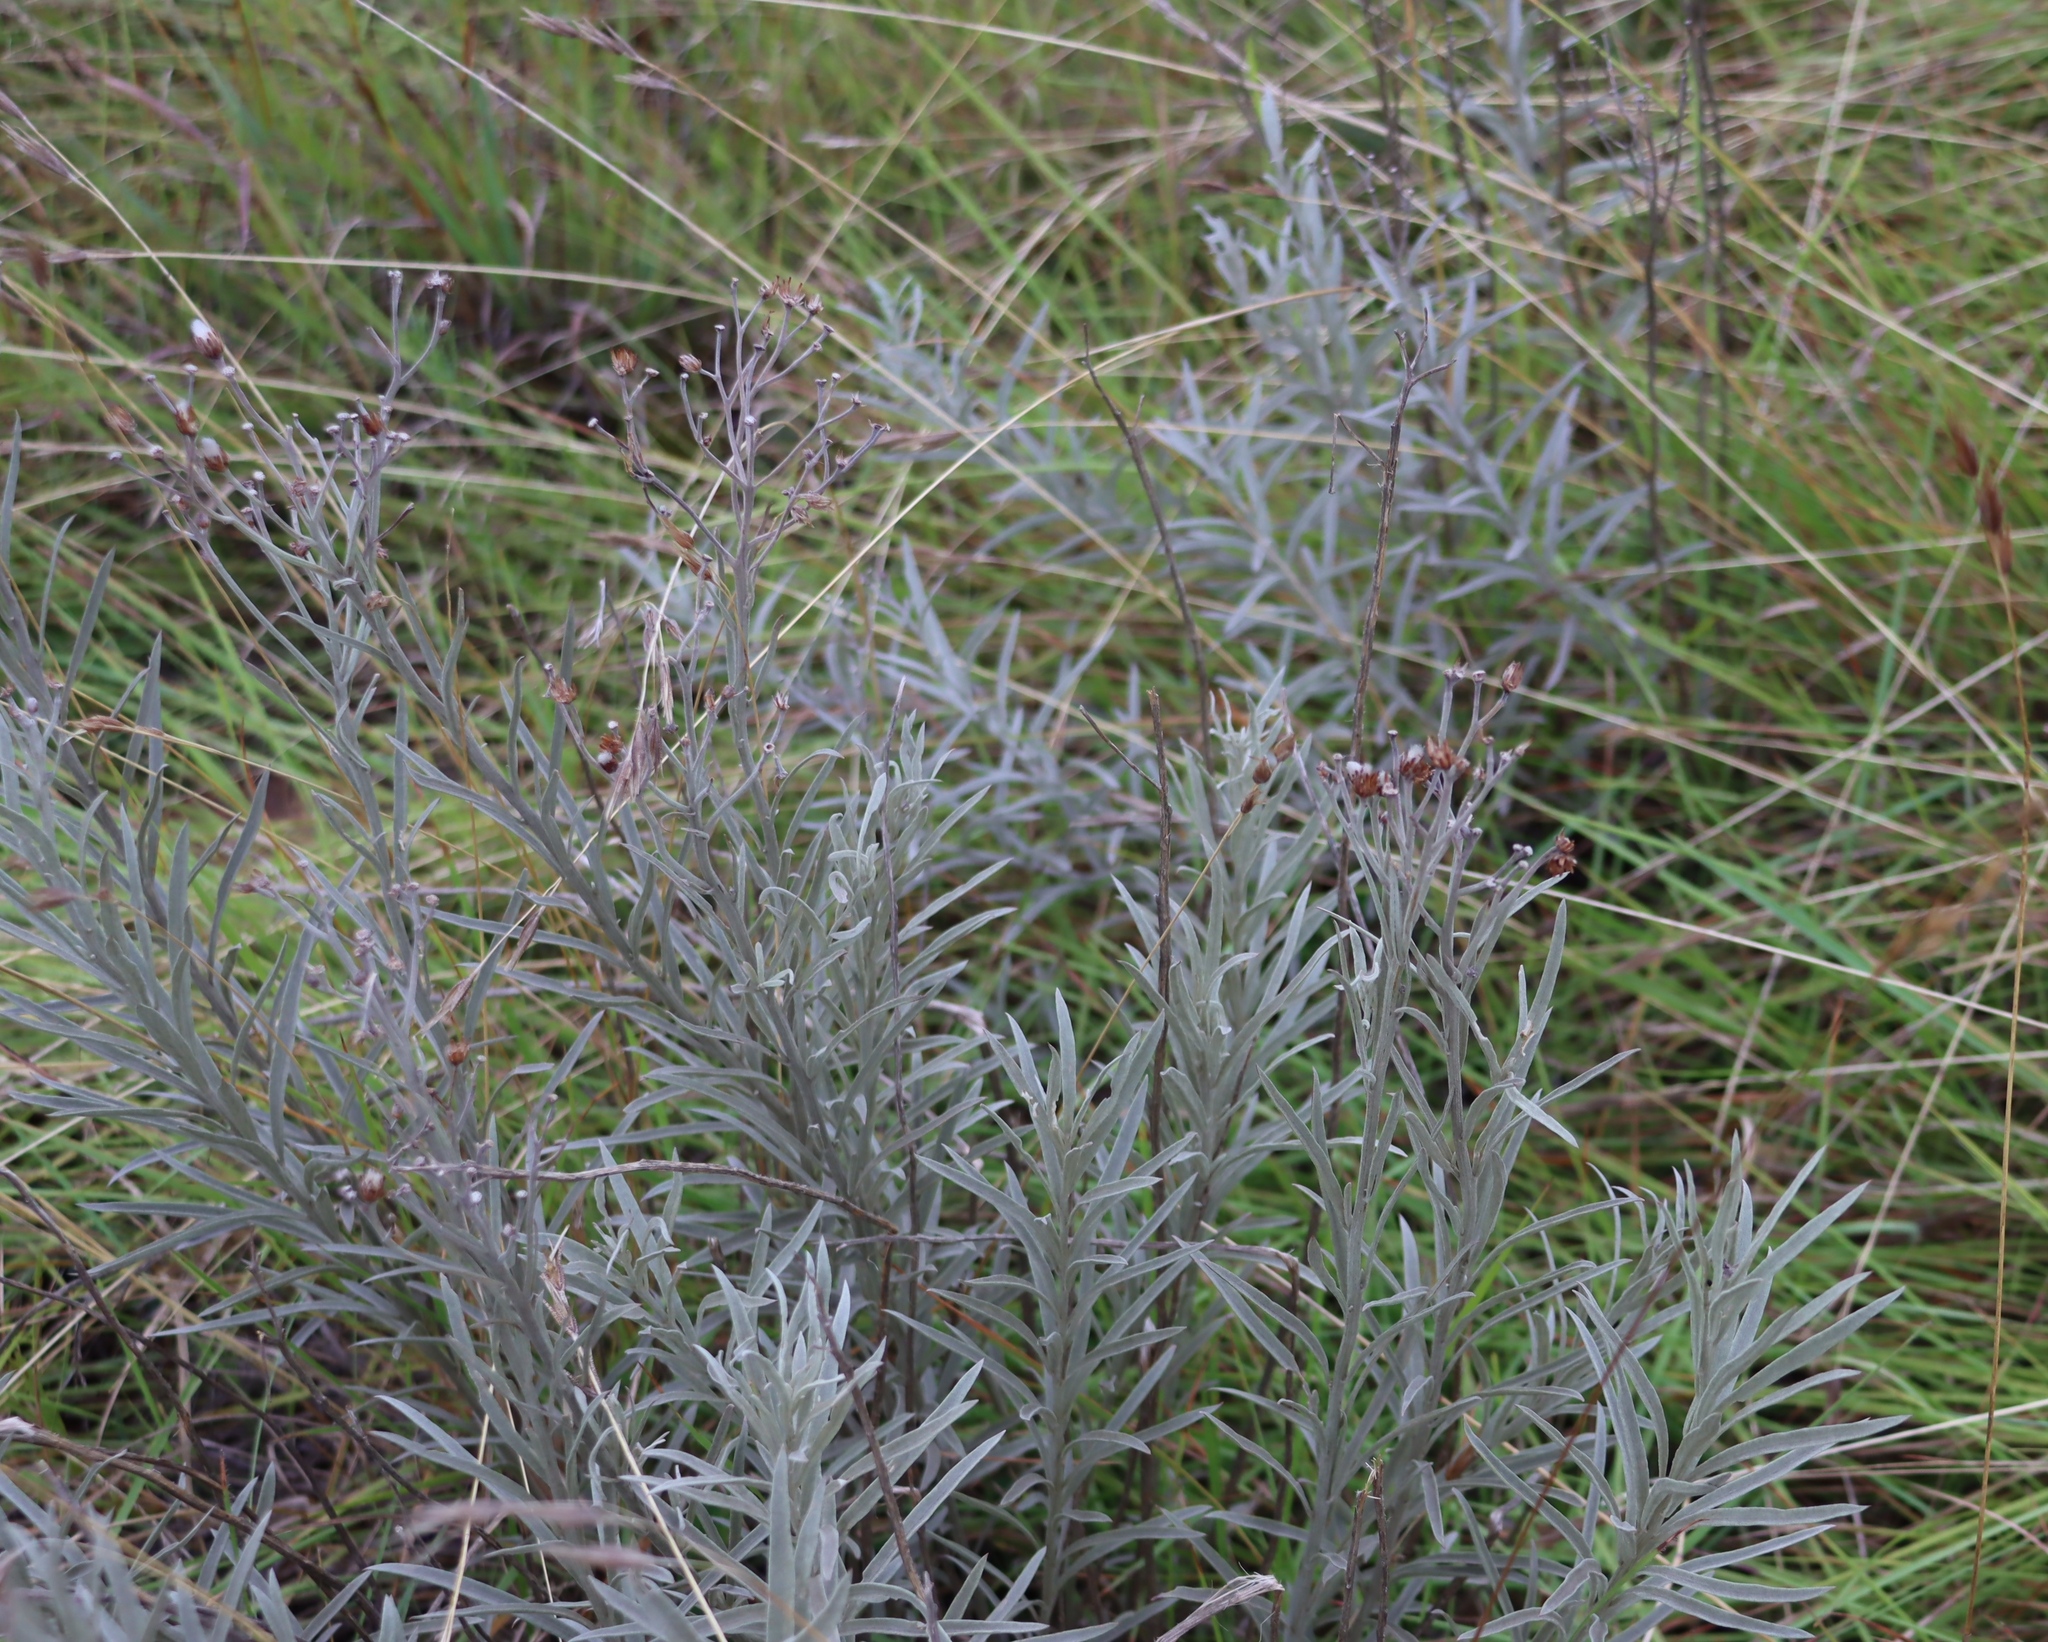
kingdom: Plantae
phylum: Tracheophyta
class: Magnoliopsida
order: Asterales
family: Asteraceae
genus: Hilliardiella
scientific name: Hilliardiella capensis
